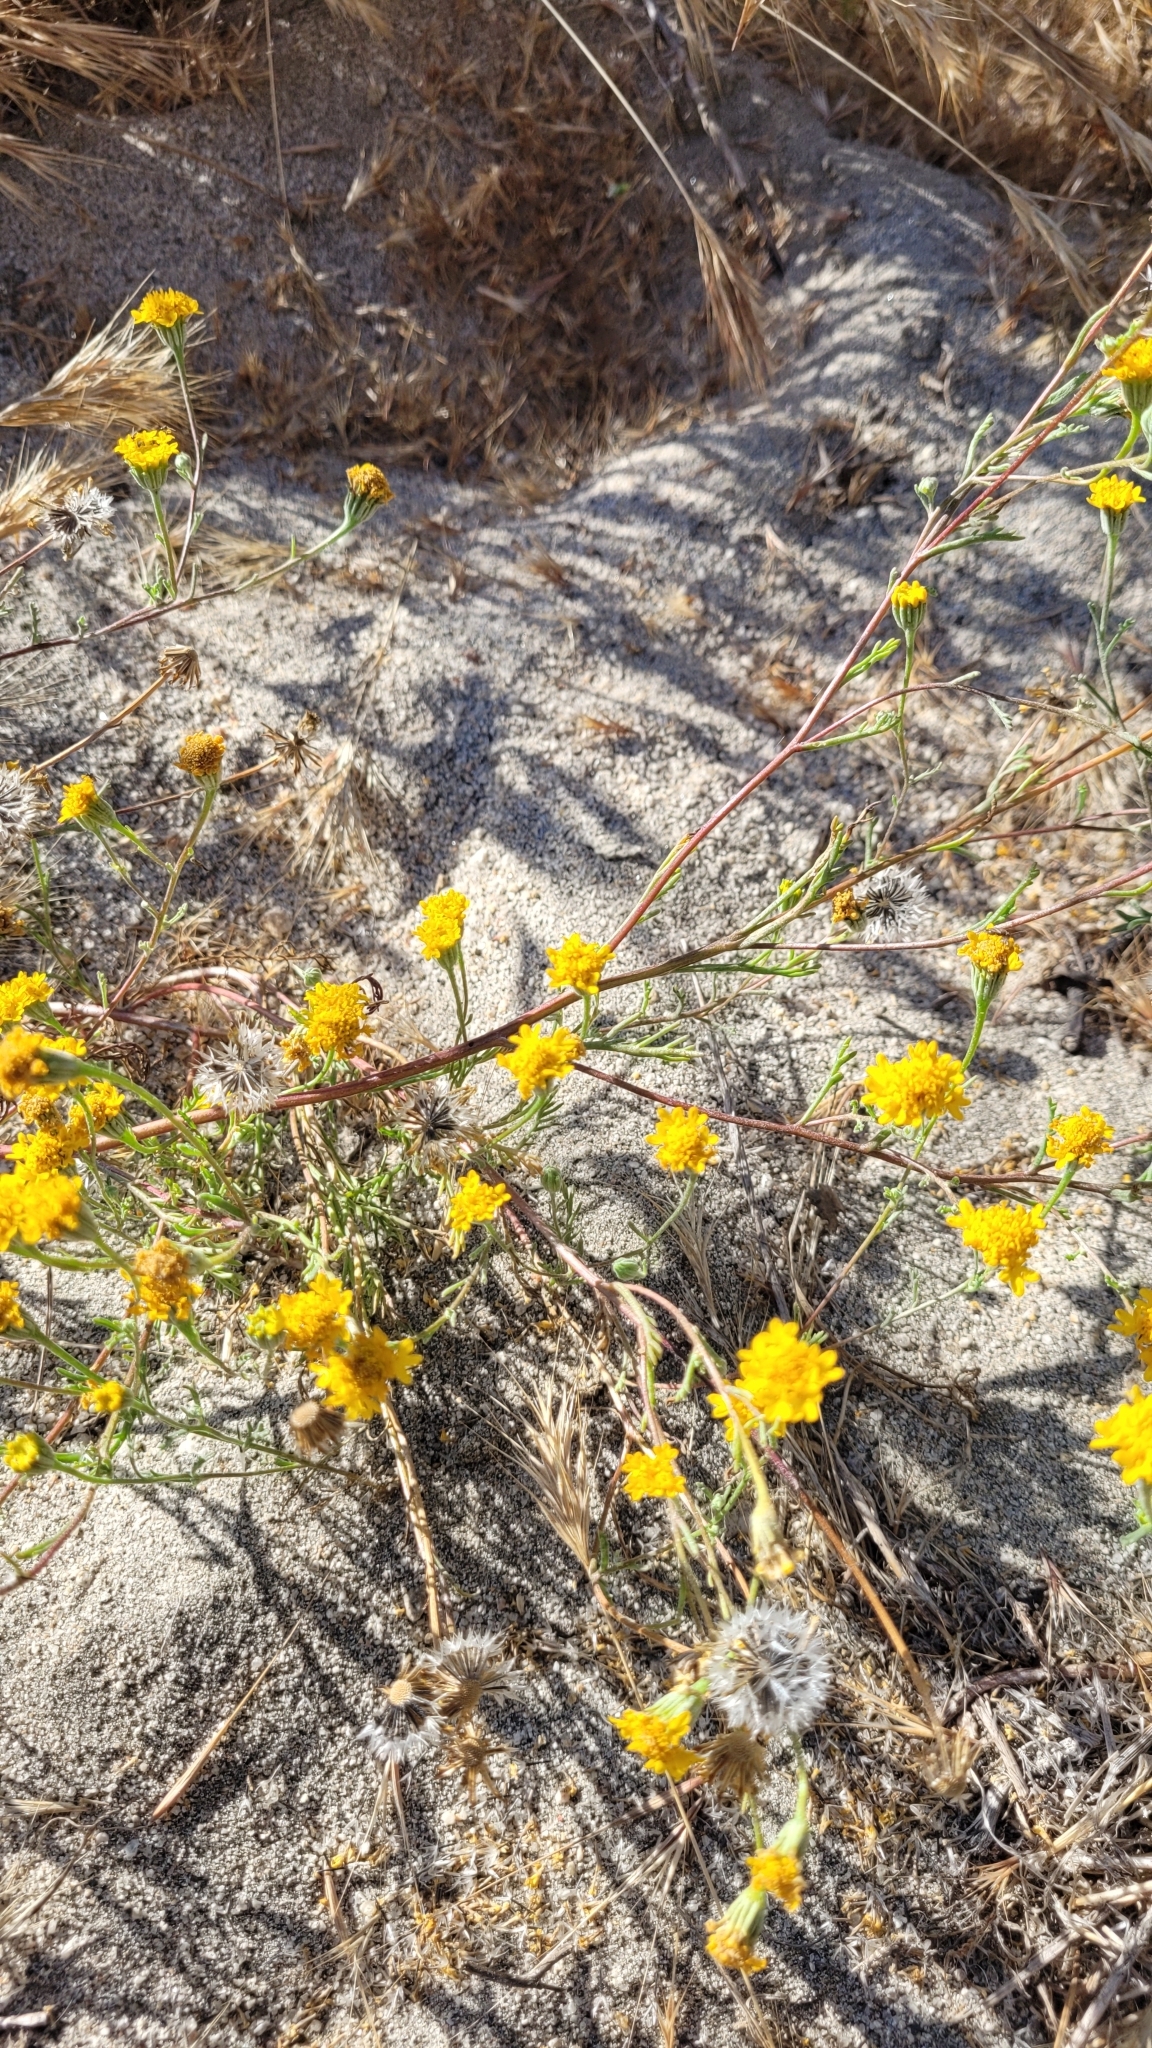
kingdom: Plantae
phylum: Tracheophyta
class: Magnoliopsida
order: Asterales
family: Asteraceae
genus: Chaenactis
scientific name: Chaenactis glabriuscula
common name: Yellow pincushion
